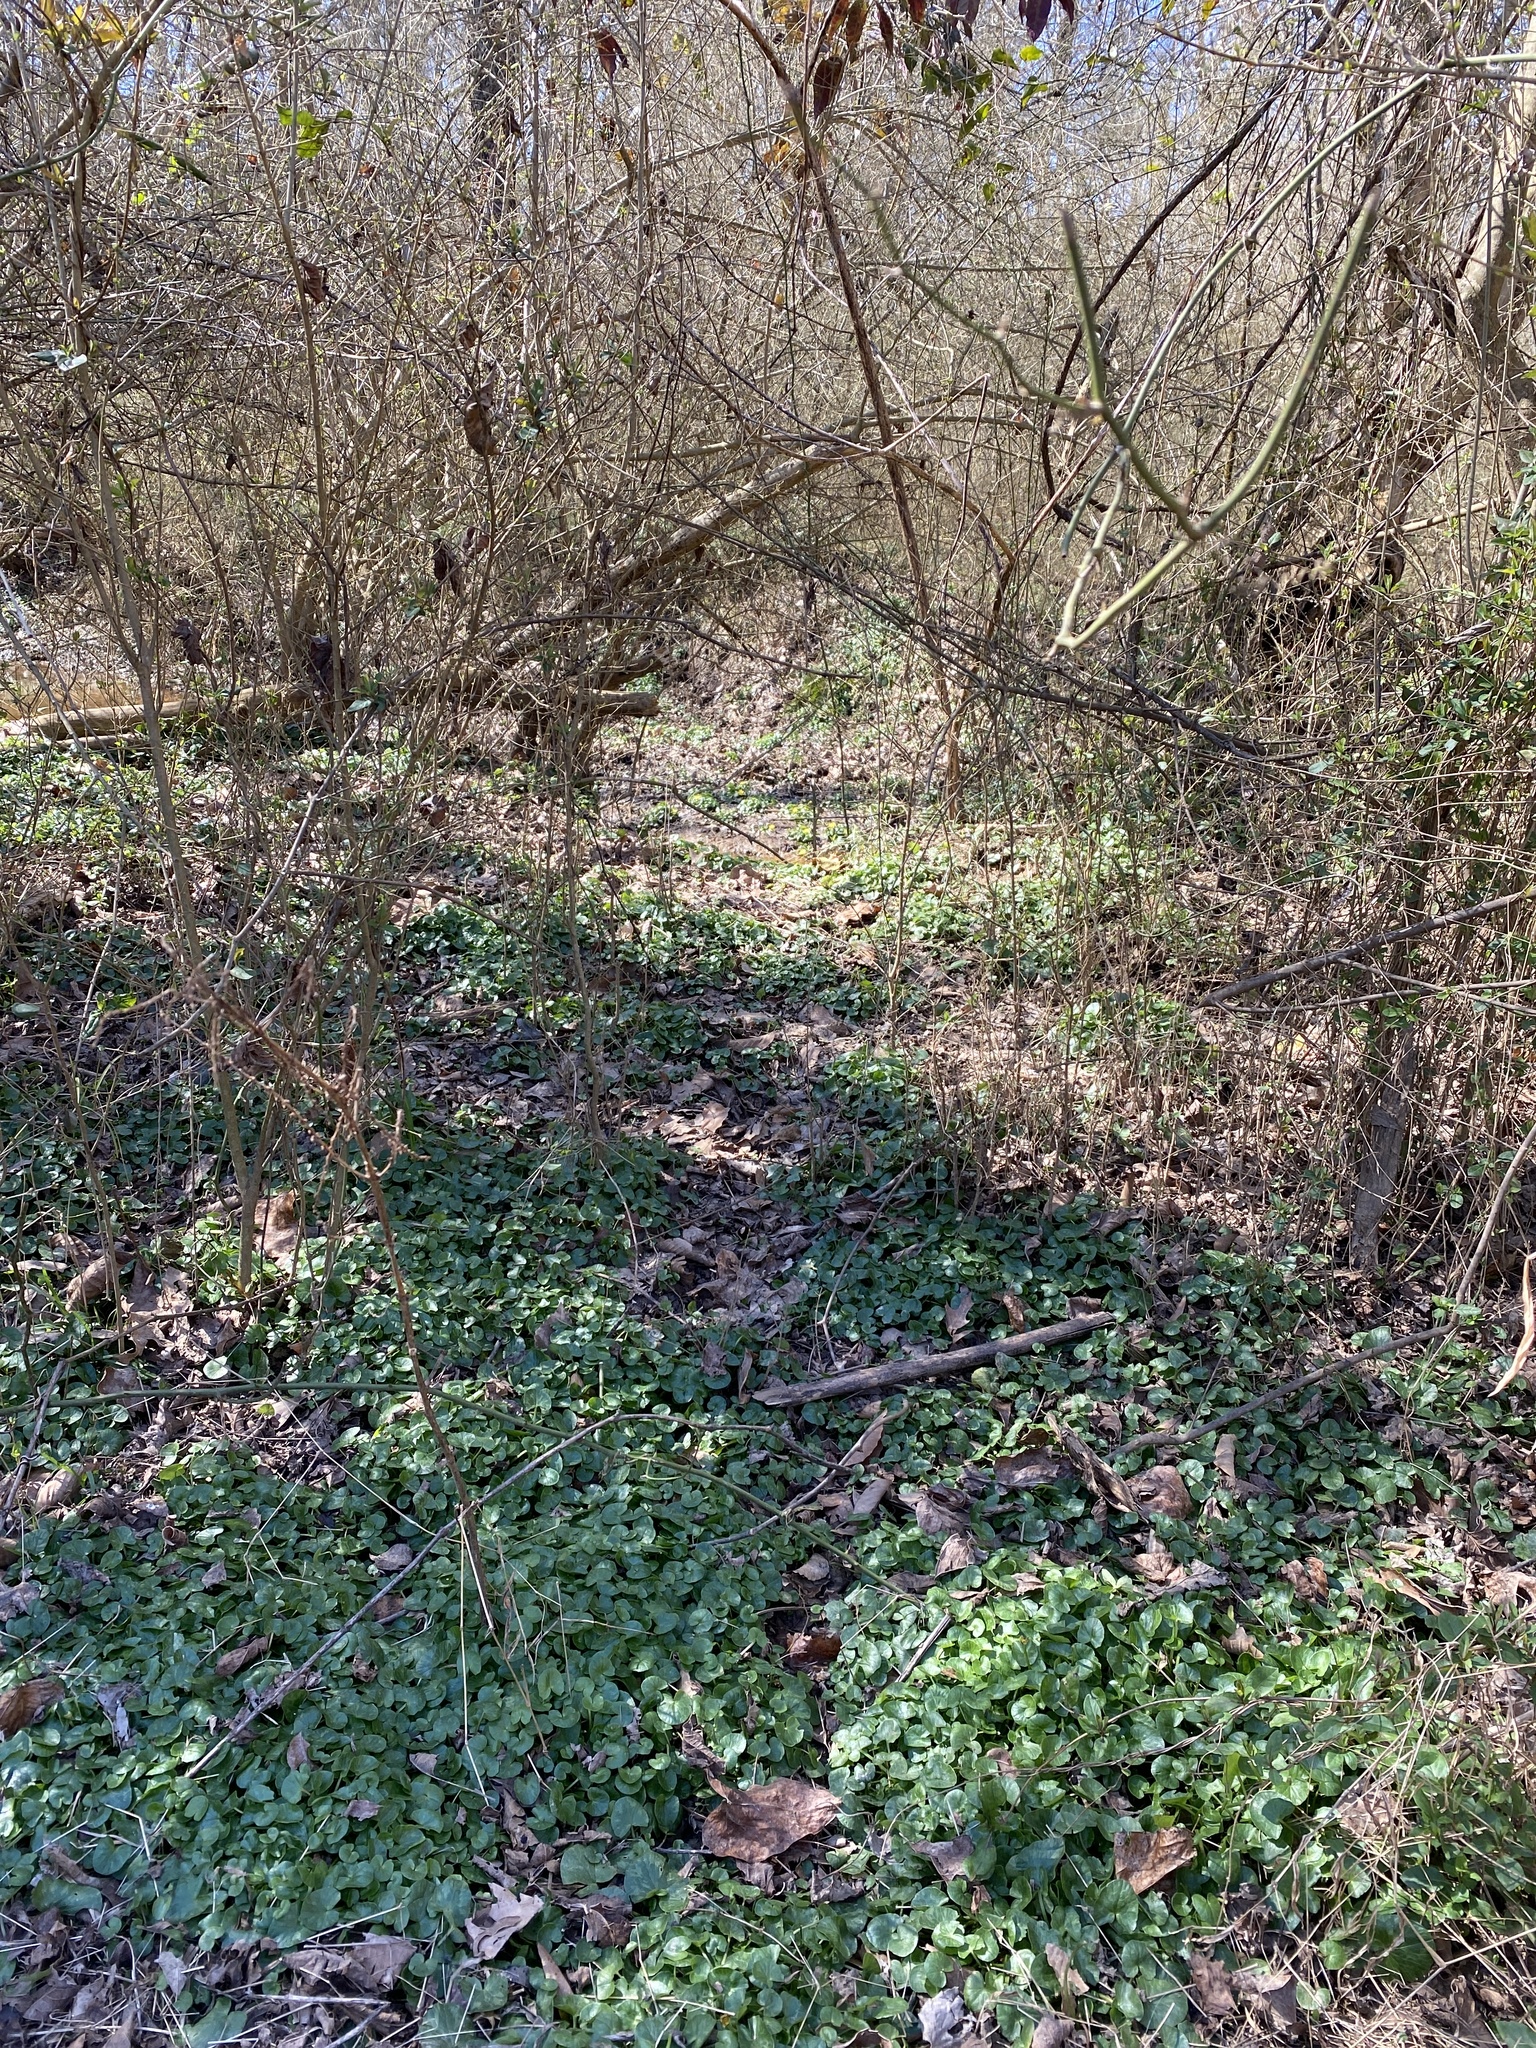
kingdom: Plantae
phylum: Tracheophyta
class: Magnoliopsida
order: Ranunculales
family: Ranunculaceae
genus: Ficaria
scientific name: Ficaria verna
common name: Lesser celandine
